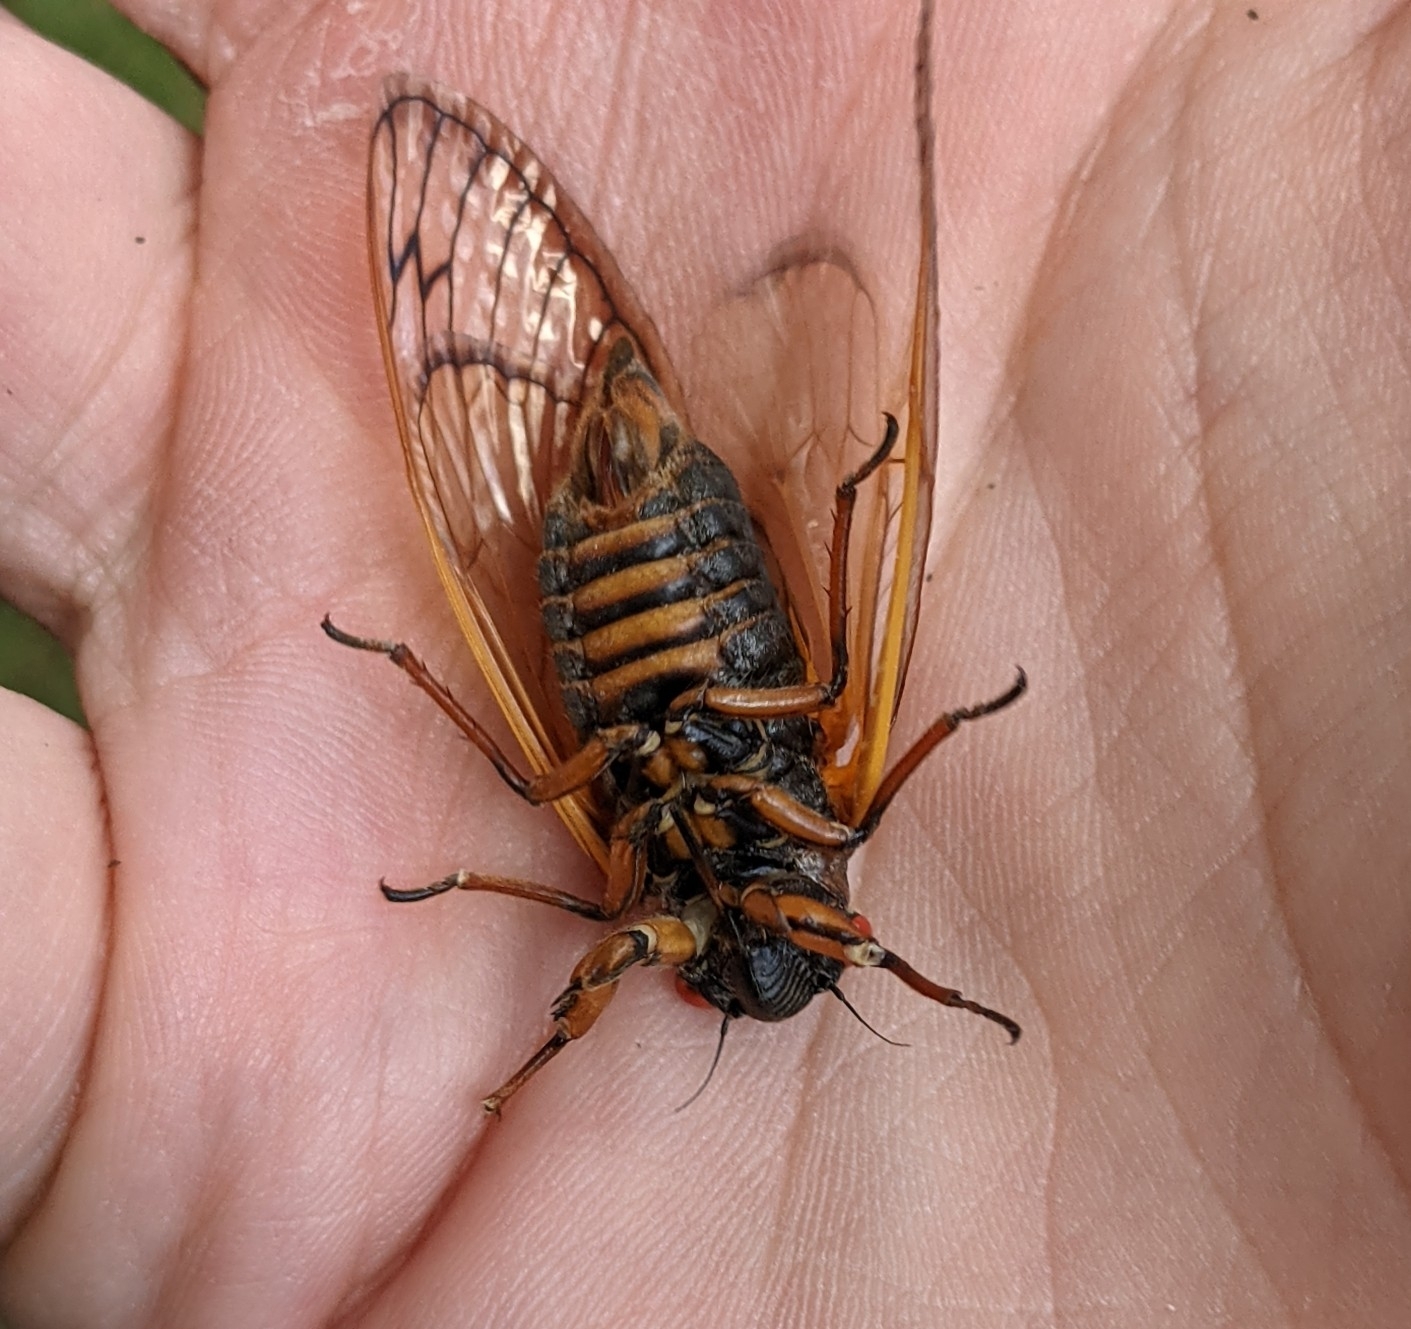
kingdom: Animalia
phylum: Arthropoda
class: Insecta
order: Hemiptera
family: Cicadidae
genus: Magicicada
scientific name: Magicicada septendecim
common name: Periodical cicada
